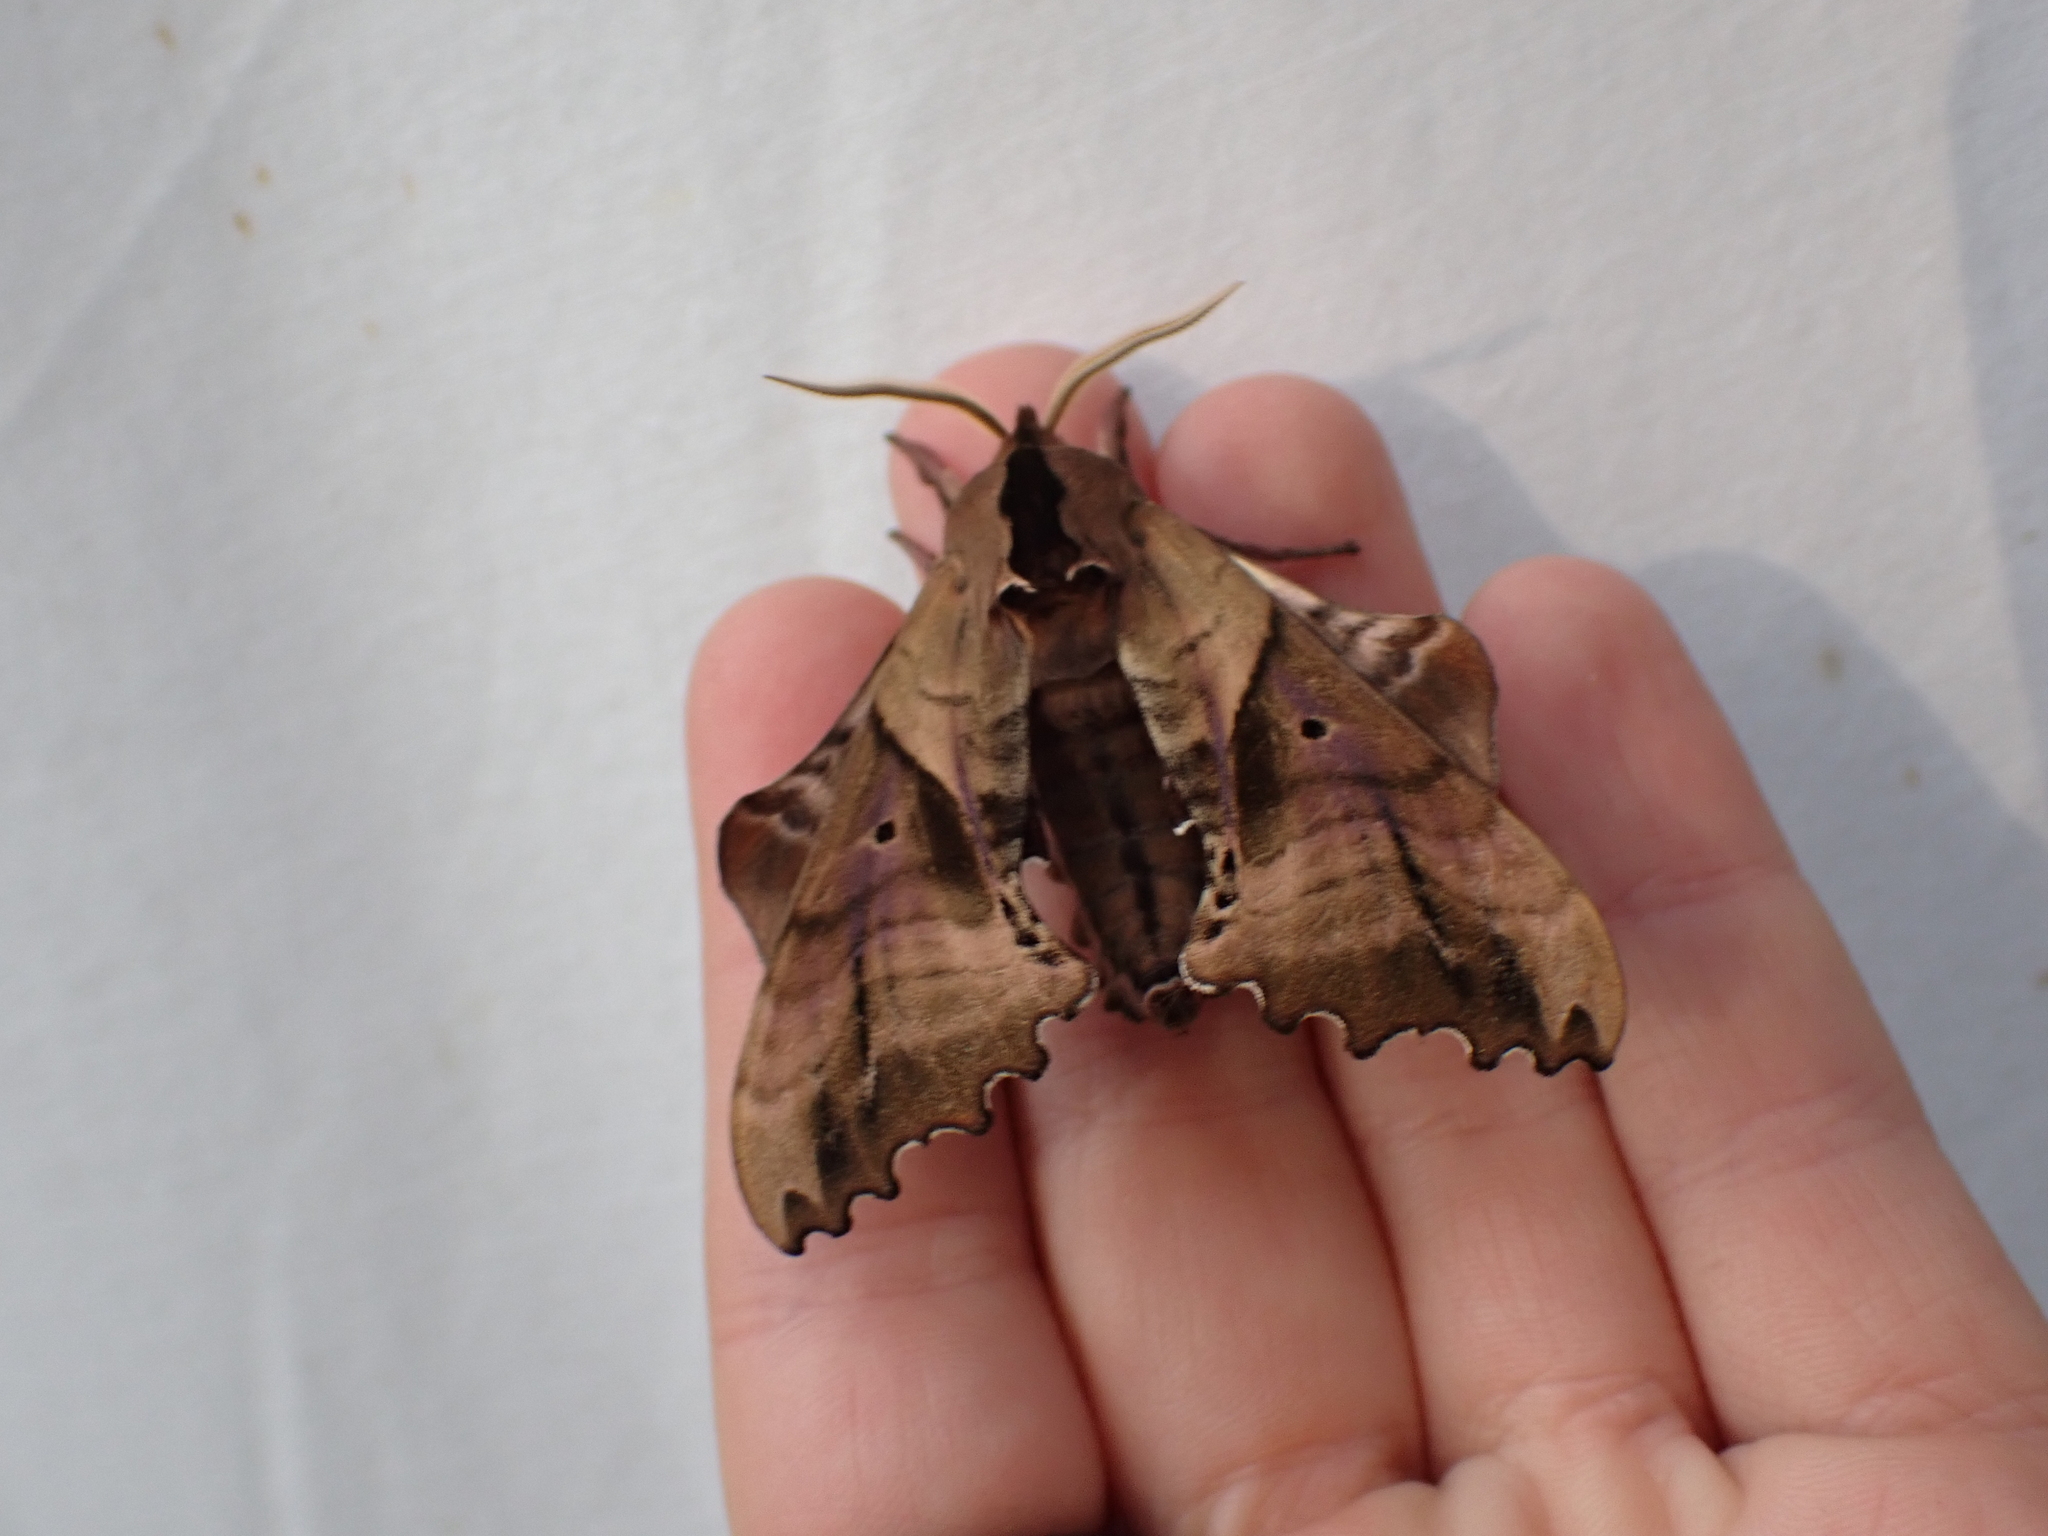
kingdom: Animalia
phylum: Arthropoda
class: Insecta
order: Lepidoptera
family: Sphingidae
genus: Paonias
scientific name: Paonias excaecata
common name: Blind-eyed sphinx
